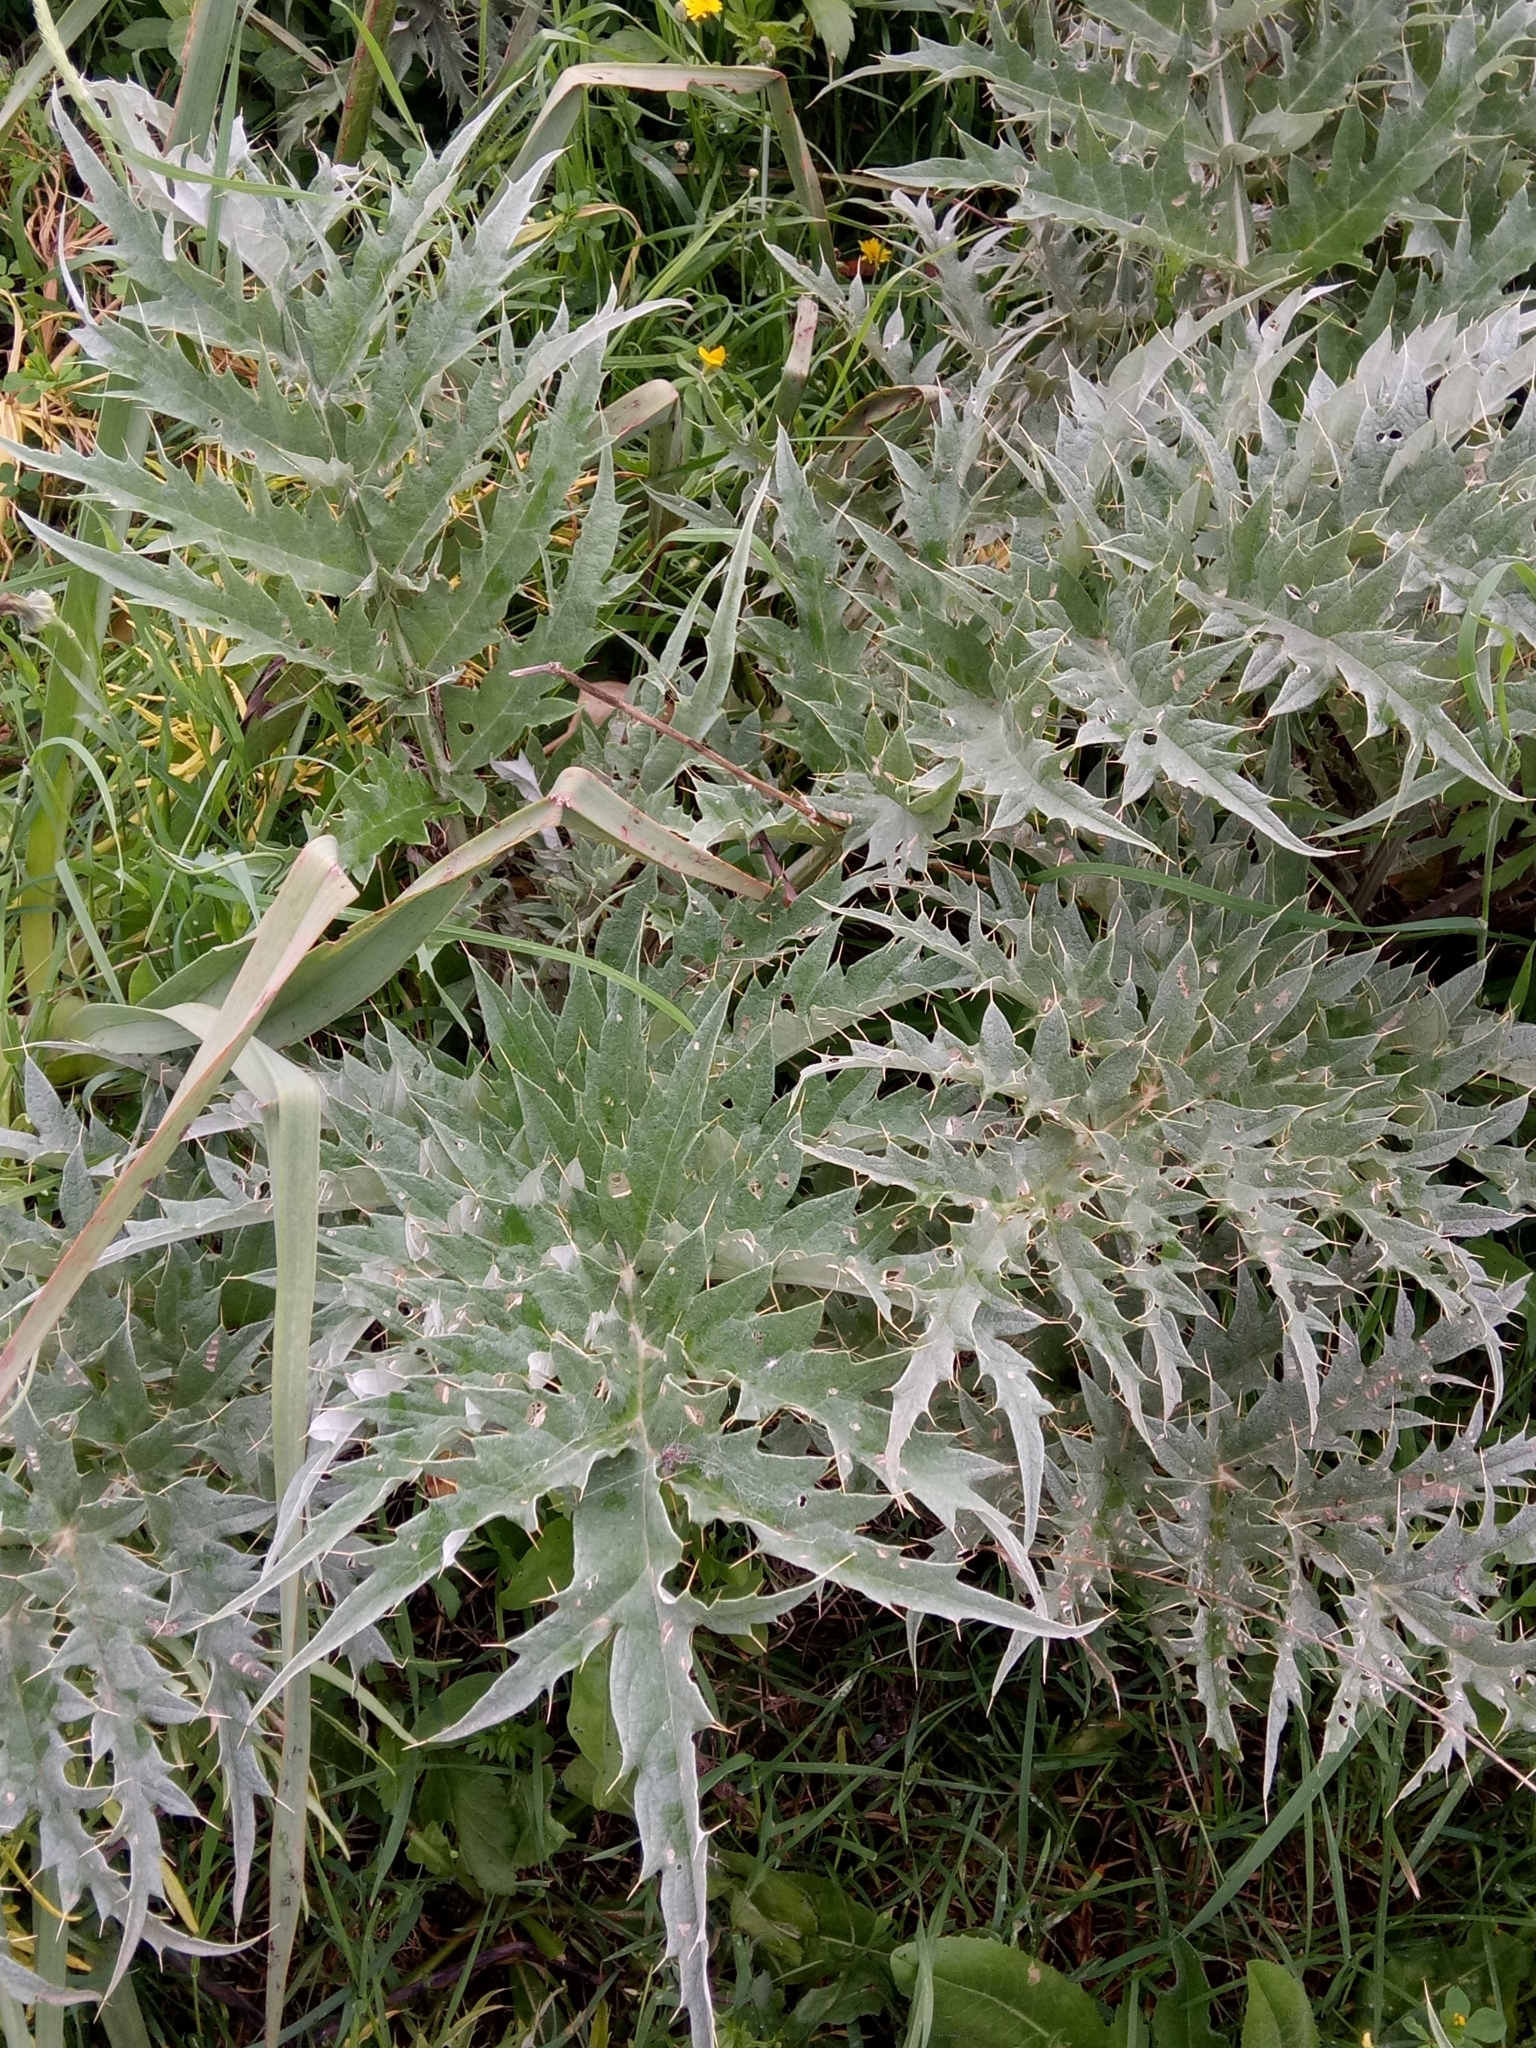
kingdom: Plantae
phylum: Tracheophyta
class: Magnoliopsida
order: Asterales
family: Asteraceae
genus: Cynara
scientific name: Cynara cardunculus
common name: Globe artichoke
